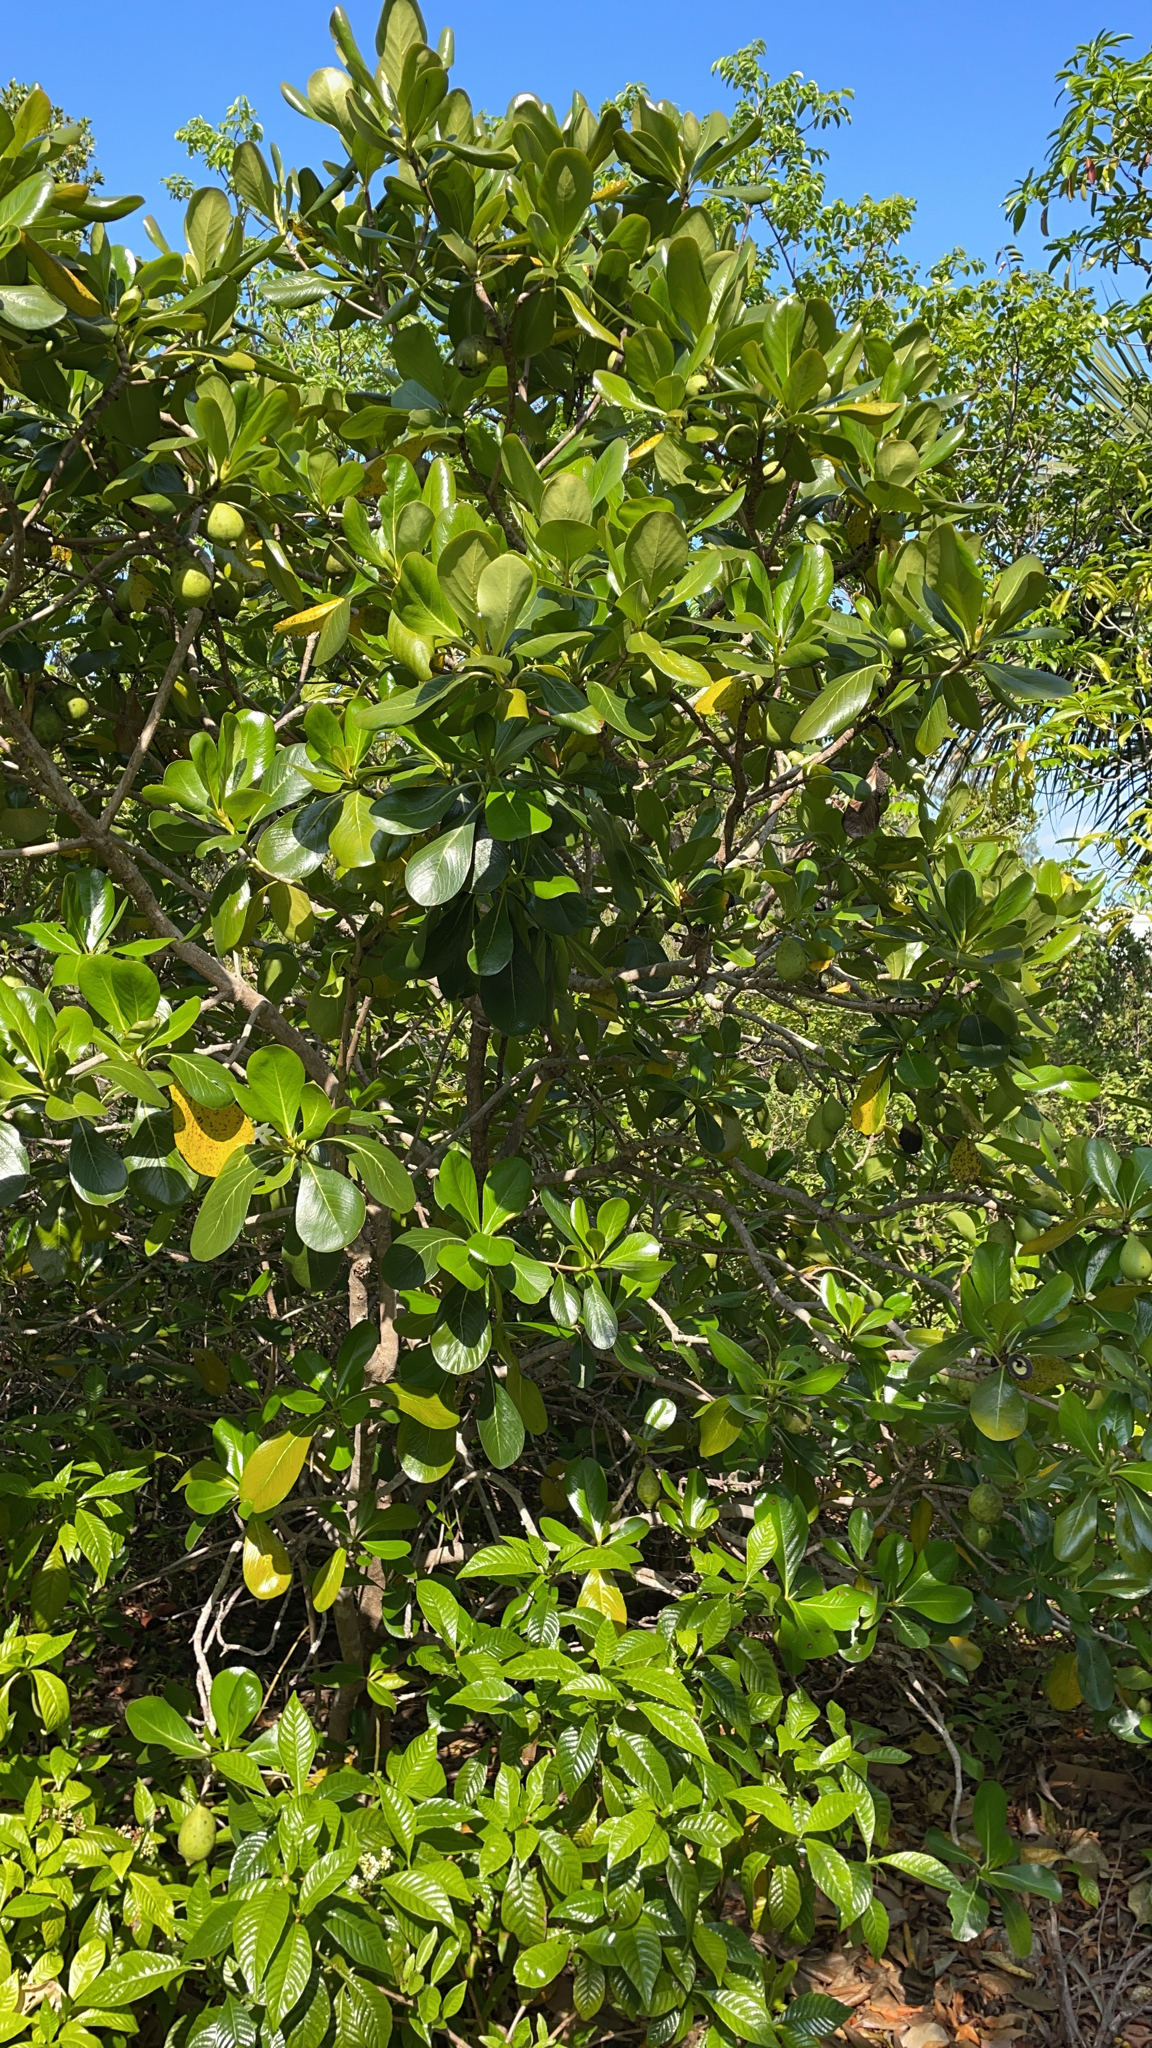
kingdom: Plantae
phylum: Tracheophyta
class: Magnoliopsida
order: Gentianales
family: Rubiaceae
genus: Casasia
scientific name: Casasia clusiifolia
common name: Seven-year apple
